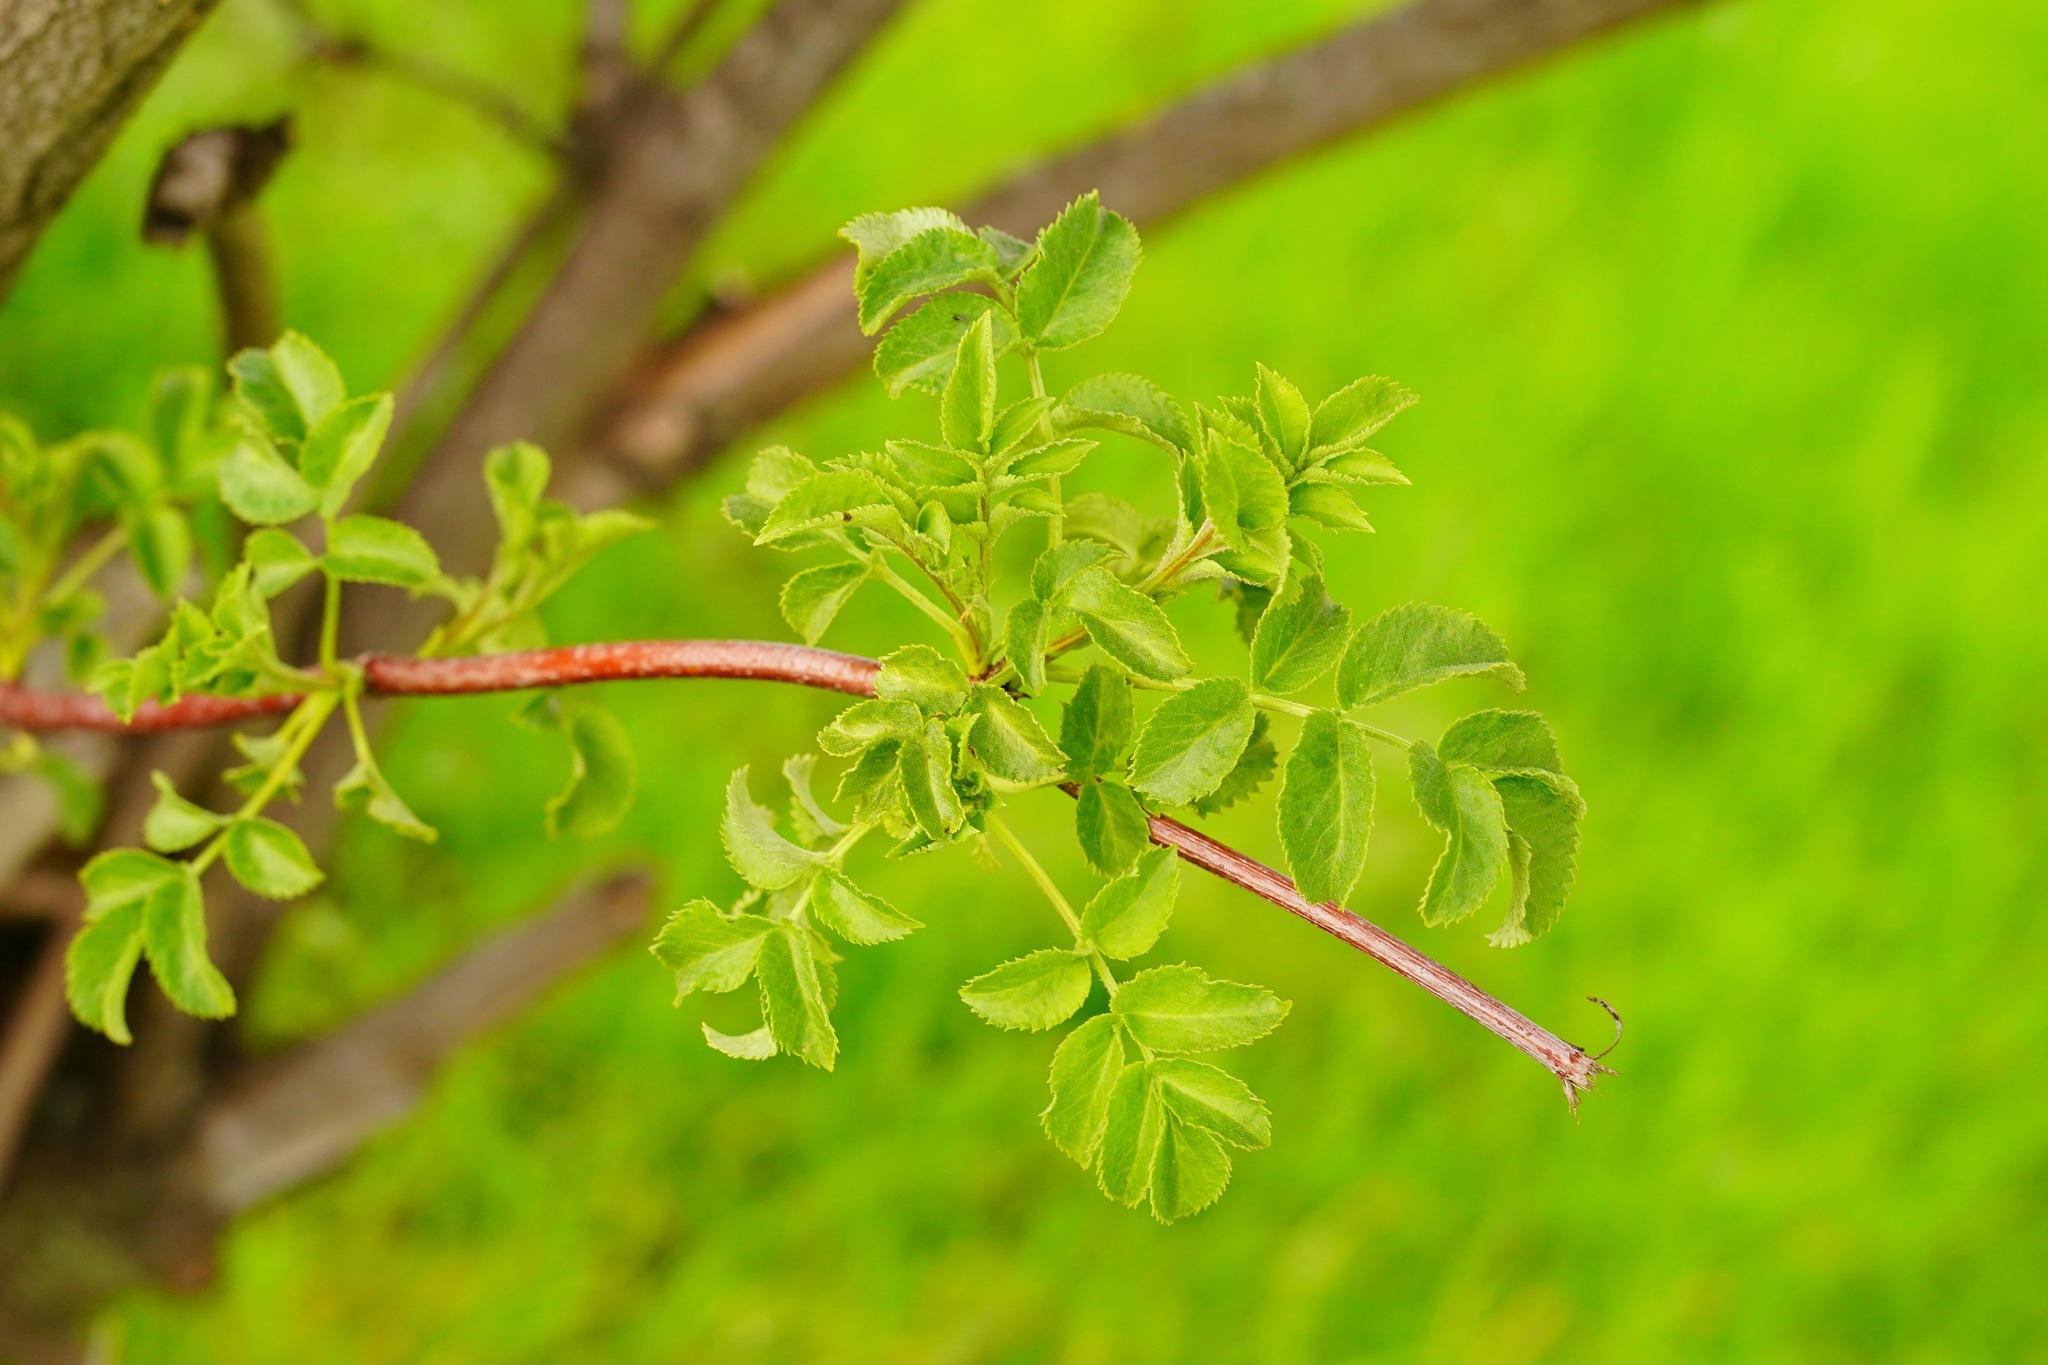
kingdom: Plantae
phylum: Tracheophyta
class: Magnoliopsida
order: Dipsacales
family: Viburnaceae
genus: Sambucus
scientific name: Sambucus cerulea
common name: Blue elder
